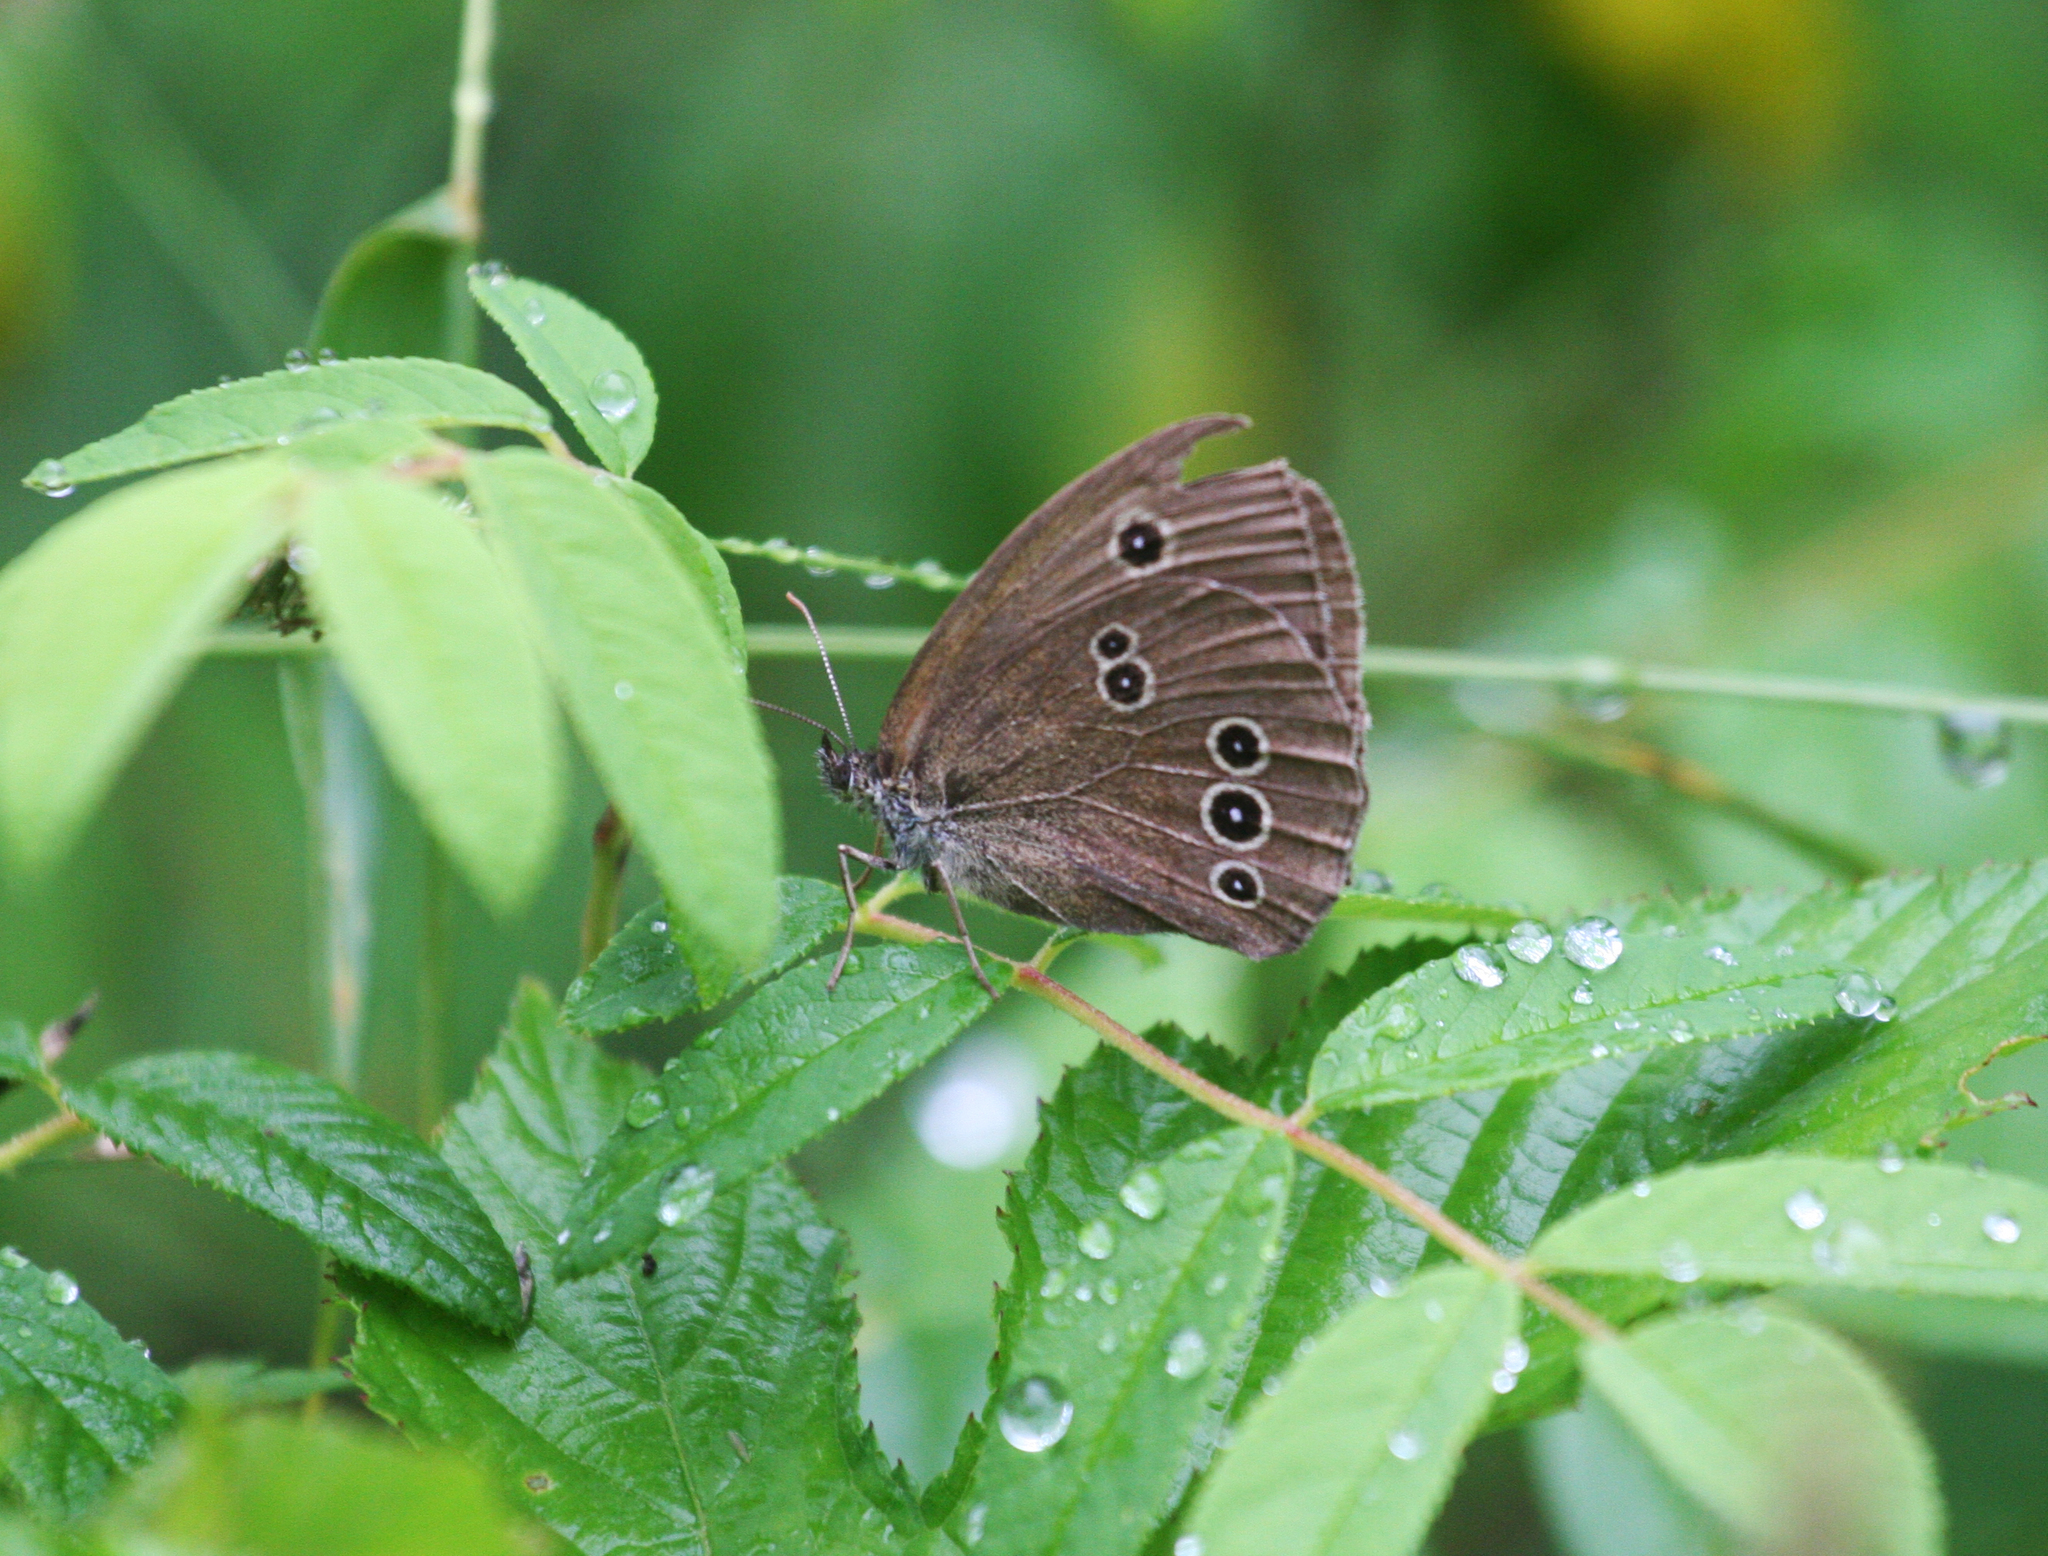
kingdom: Animalia
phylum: Arthropoda
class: Insecta
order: Lepidoptera
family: Nymphalidae
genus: Aphantopus
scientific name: Aphantopus hyperantus
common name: Ringlet
